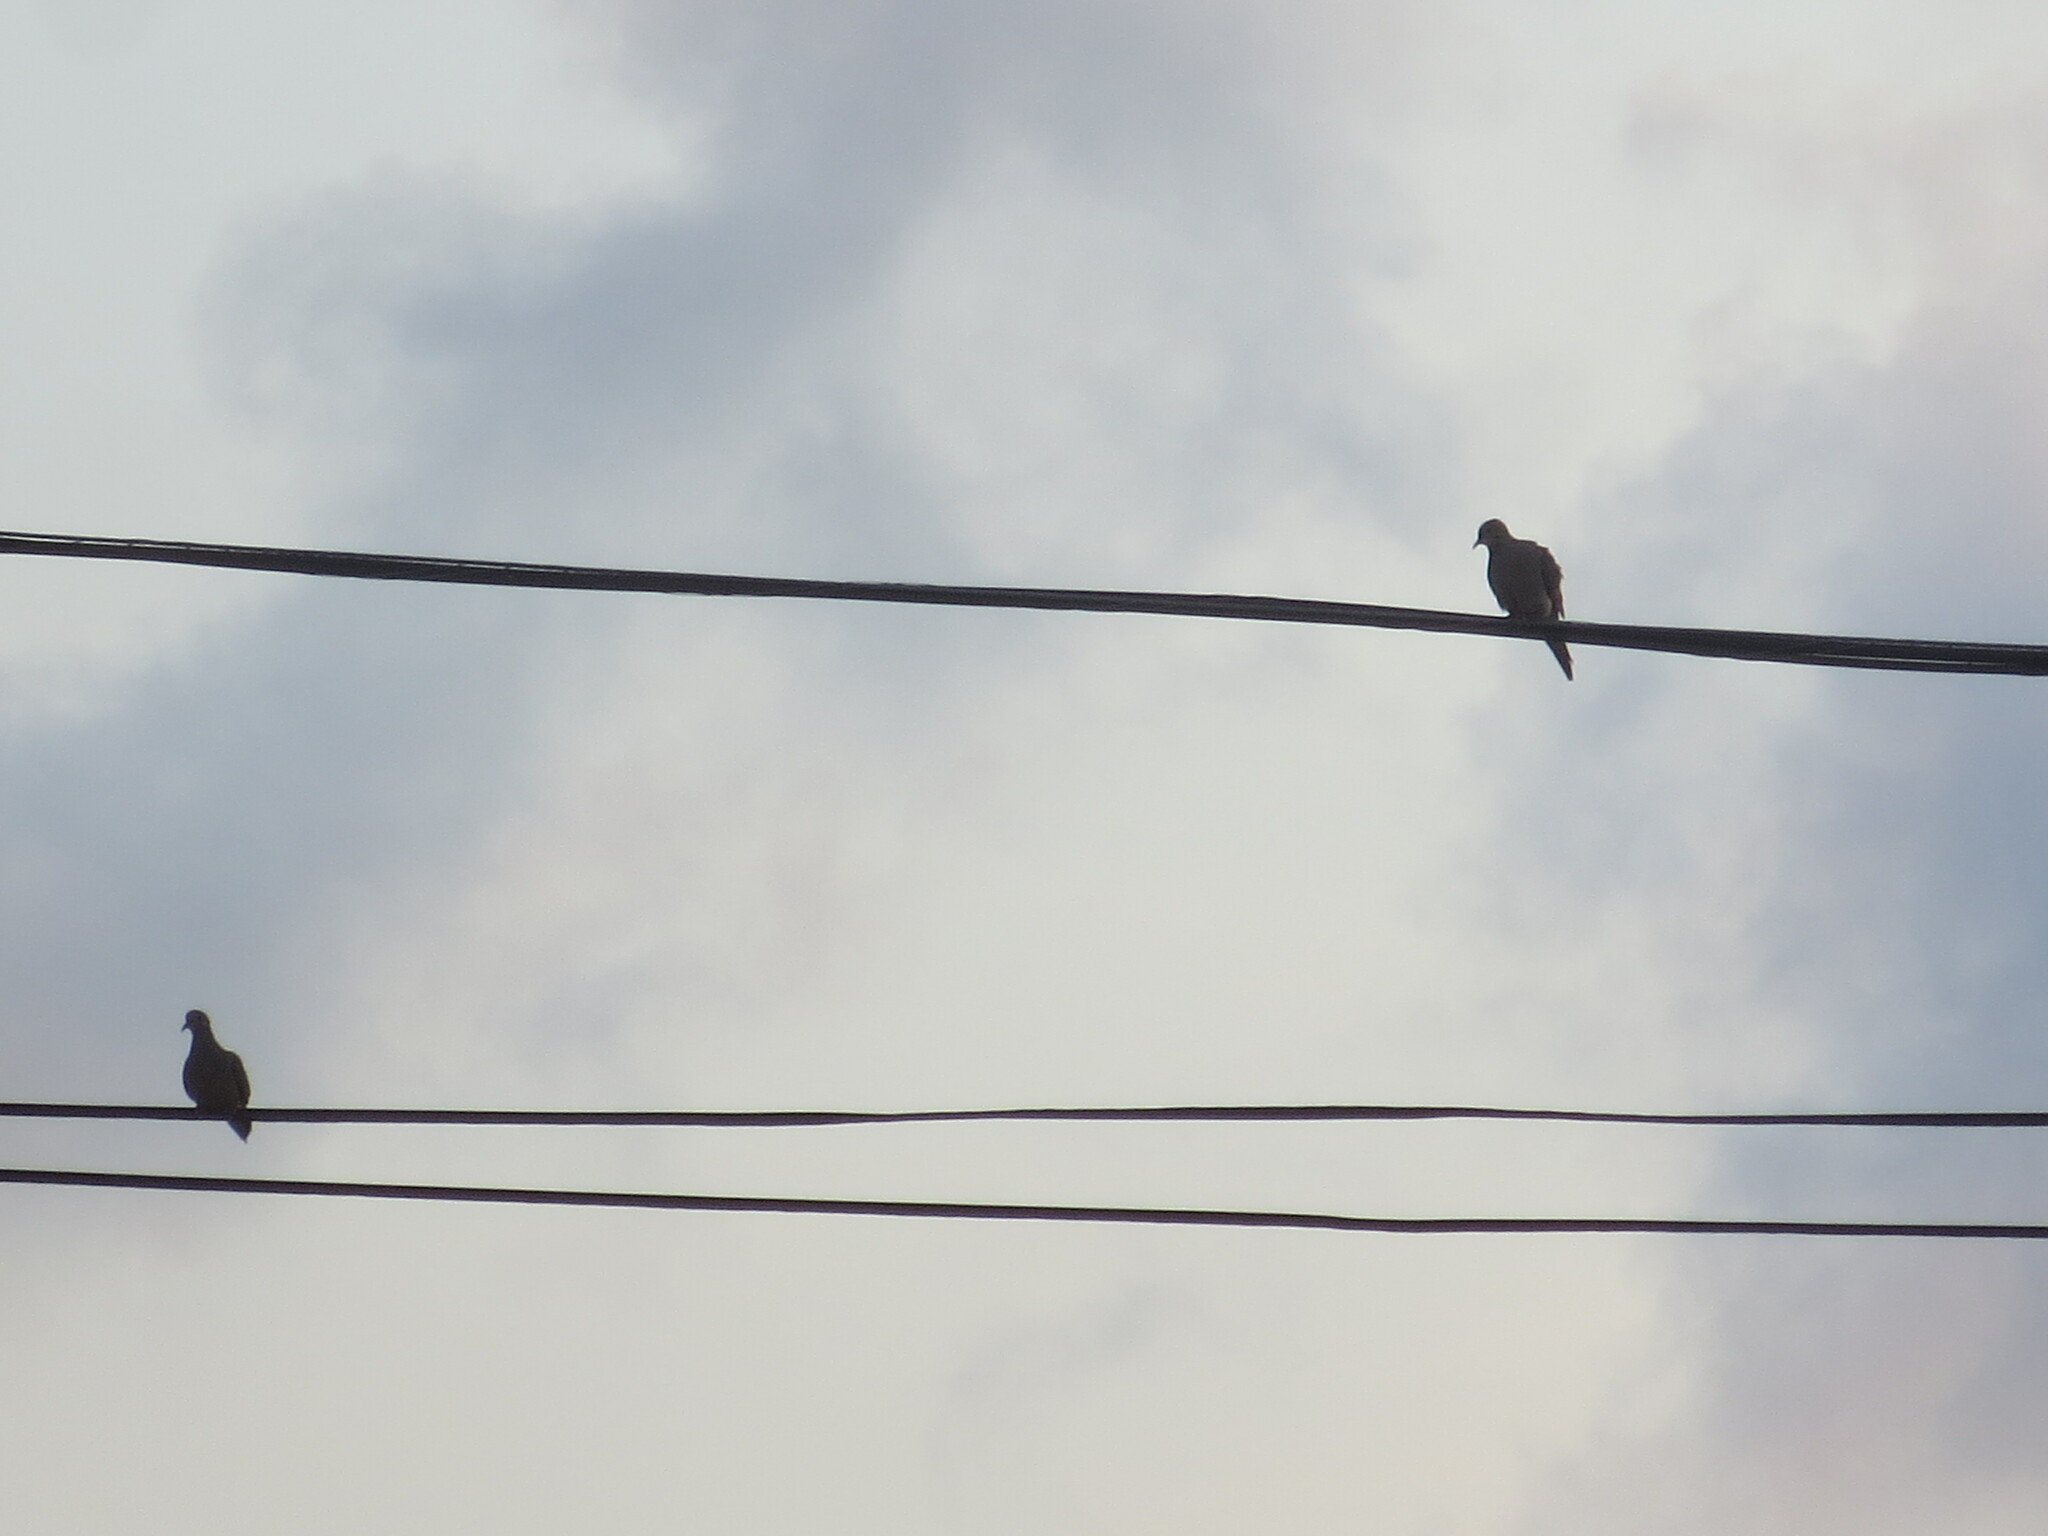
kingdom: Animalia
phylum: Chordata
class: Aves
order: Columbiformes
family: Columbidae
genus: Zenaida
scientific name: Zenaida macroura
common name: Mourning dove
